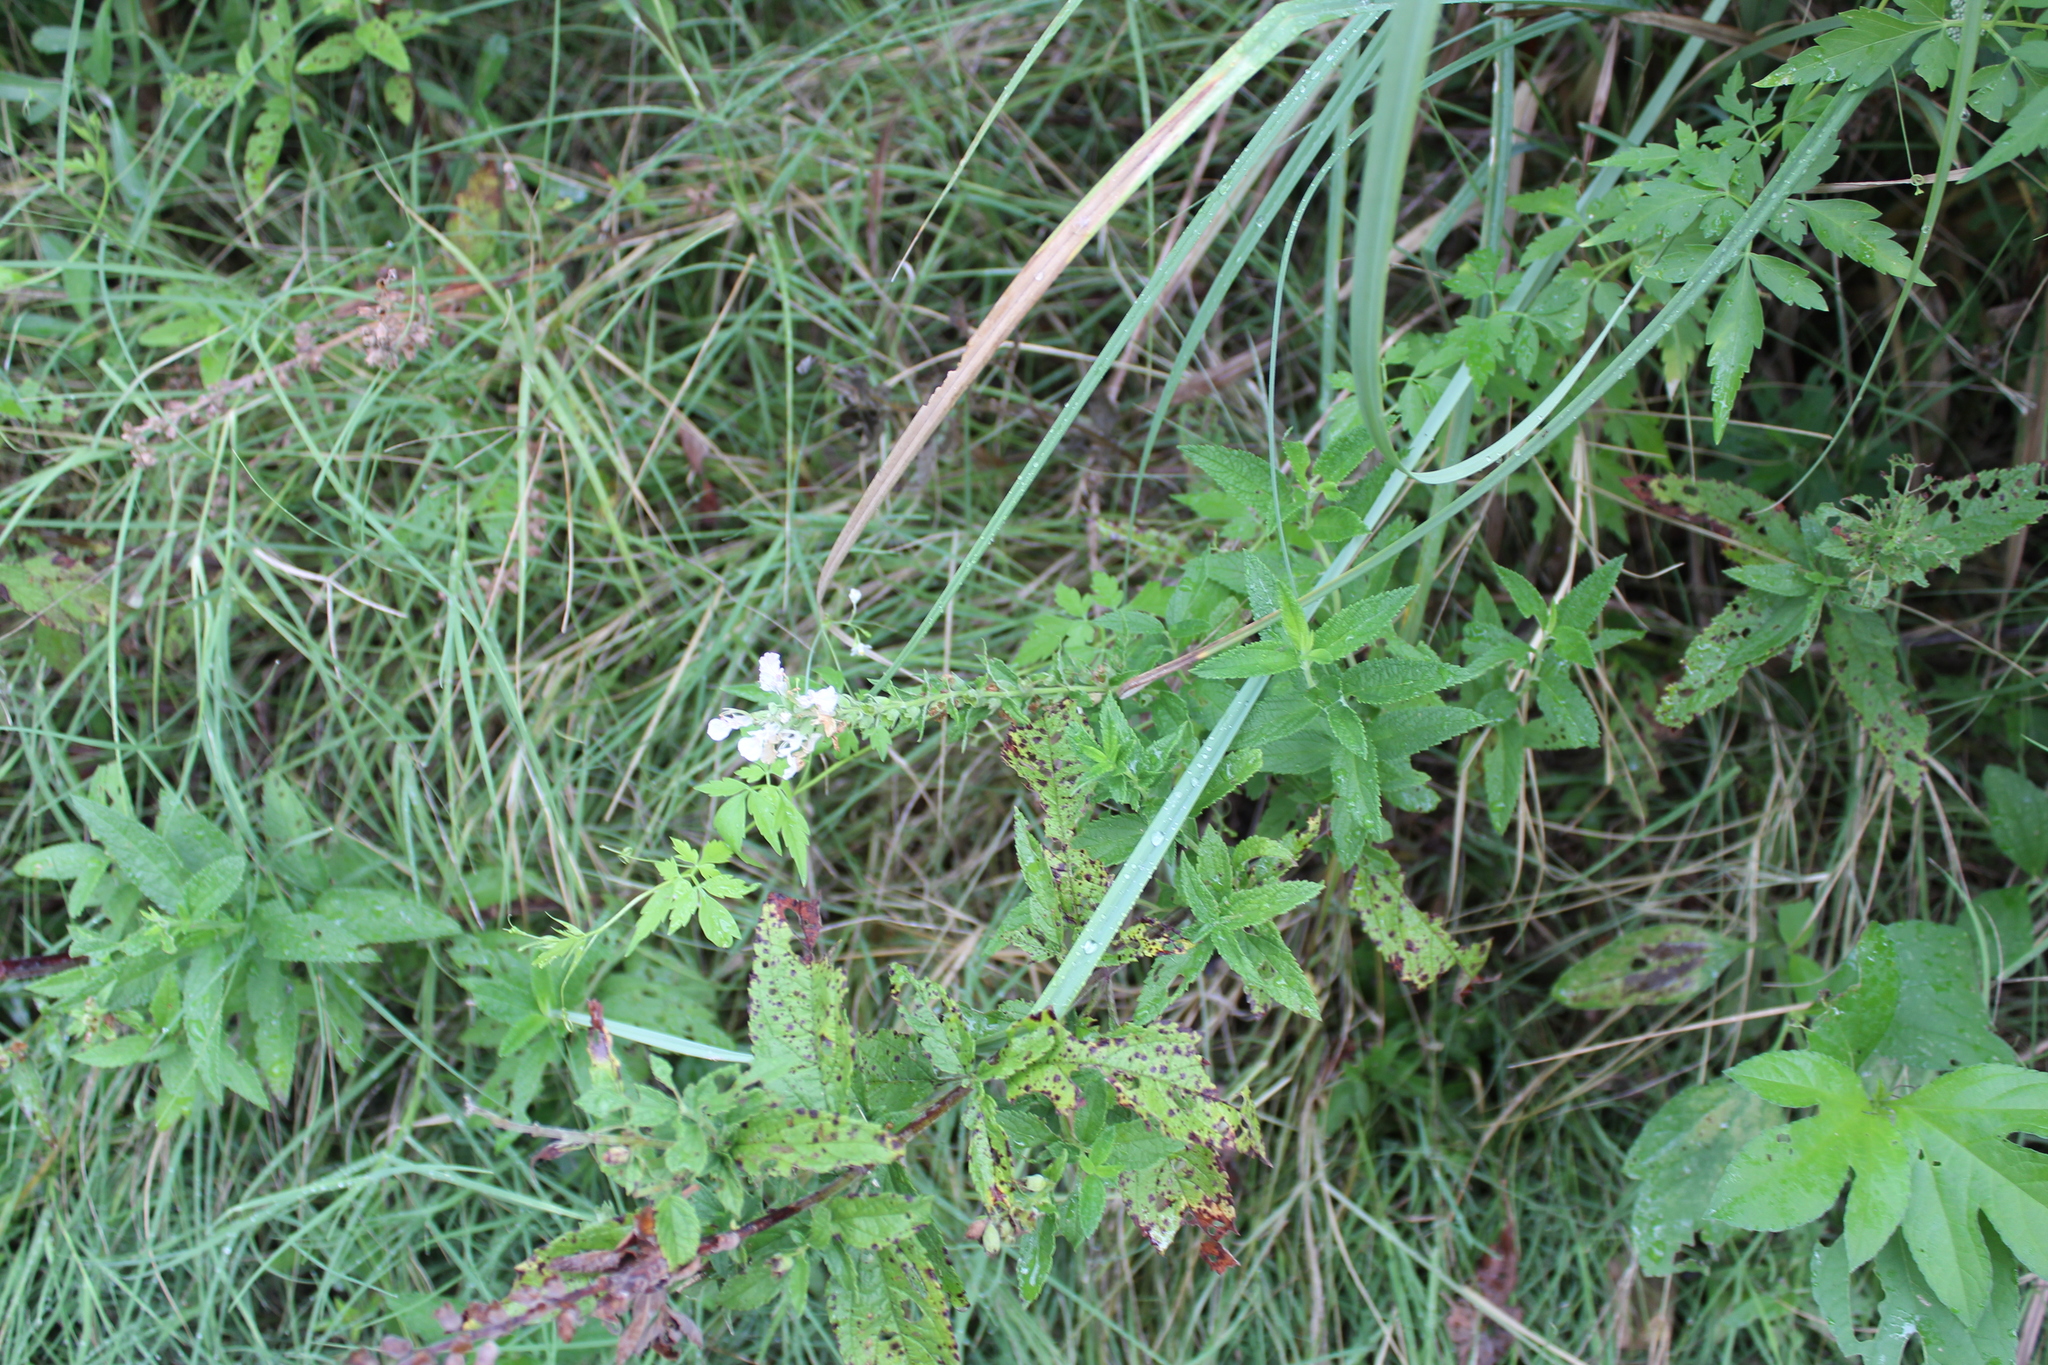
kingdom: Plantae
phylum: Tracheophyta
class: Magnoliopsida
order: Lamiales
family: Lamiaceae
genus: Teucrium
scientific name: Teucrium canadense
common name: American germander
